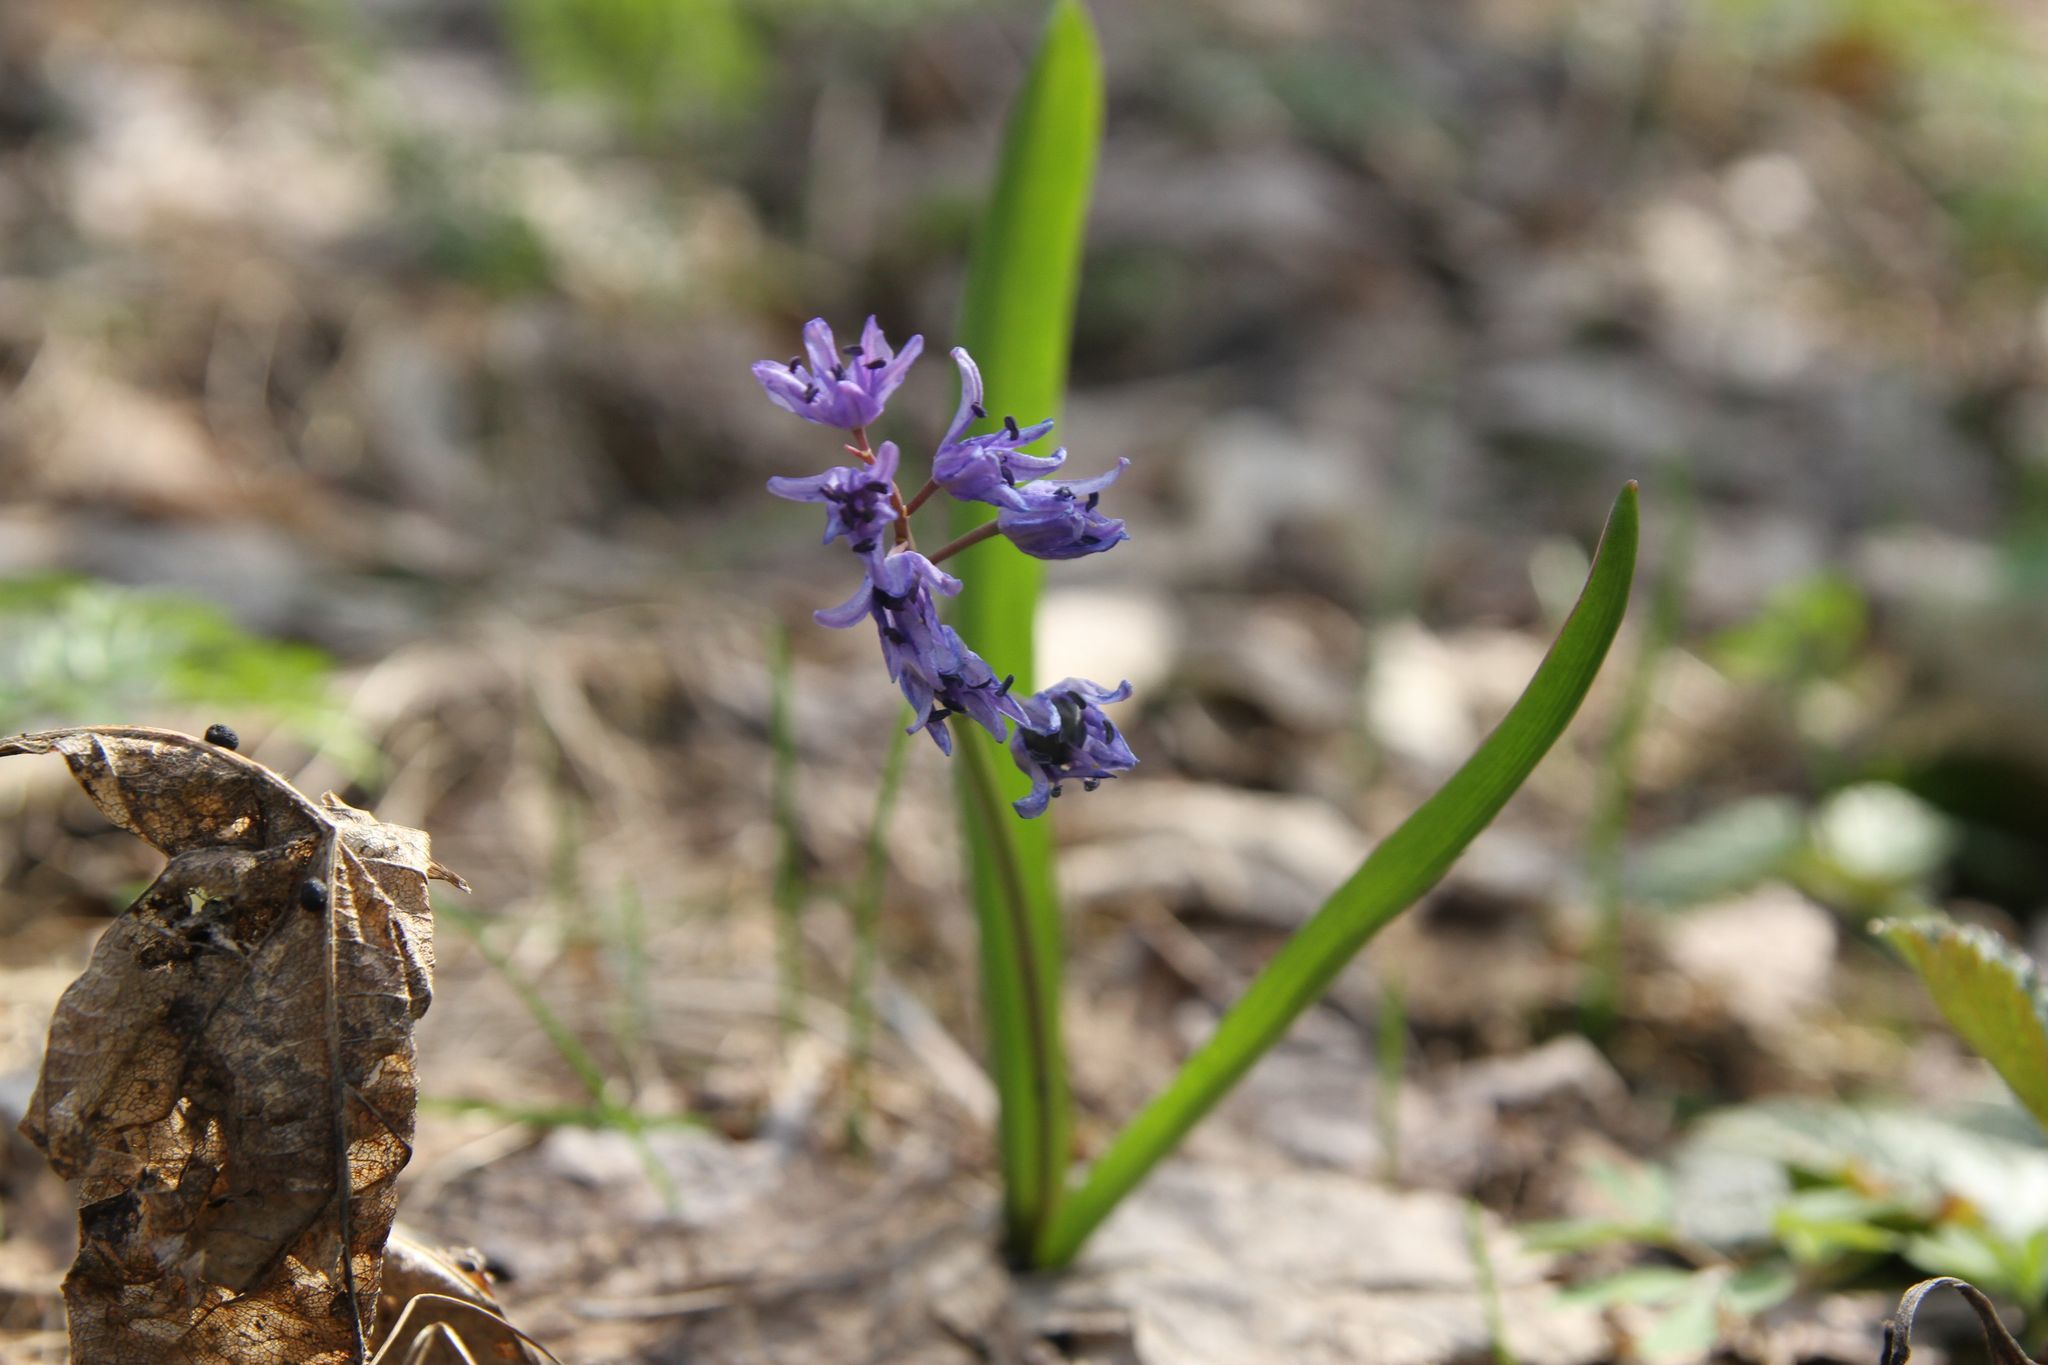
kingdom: Plantae
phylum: Tracheophyta
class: Liliopsida
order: Asparagales
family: Asparagaceae
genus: Scilla
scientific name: Scilla bifolia
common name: Alpine squill
